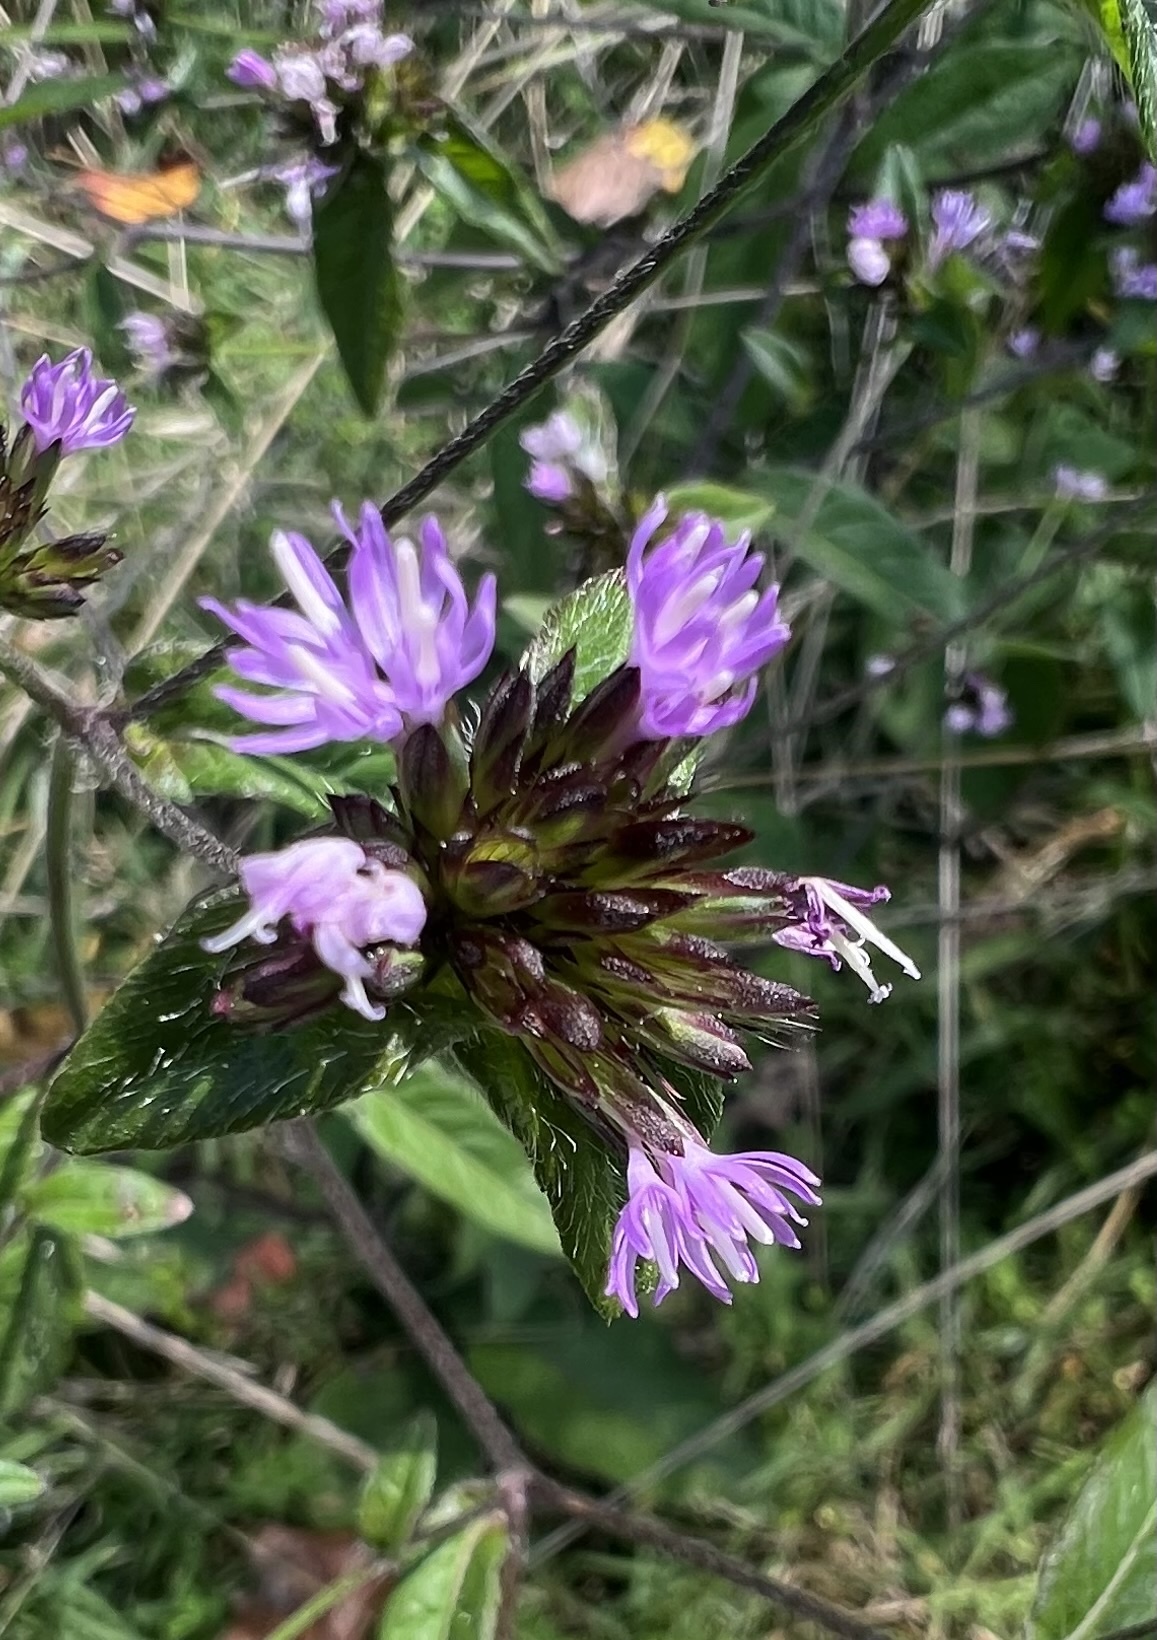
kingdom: Plantae
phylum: Tracheophyta
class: Magnoliopsida
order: Asterales
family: Asteraceae
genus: Elephantopus
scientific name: Elephantopus carolinianus
